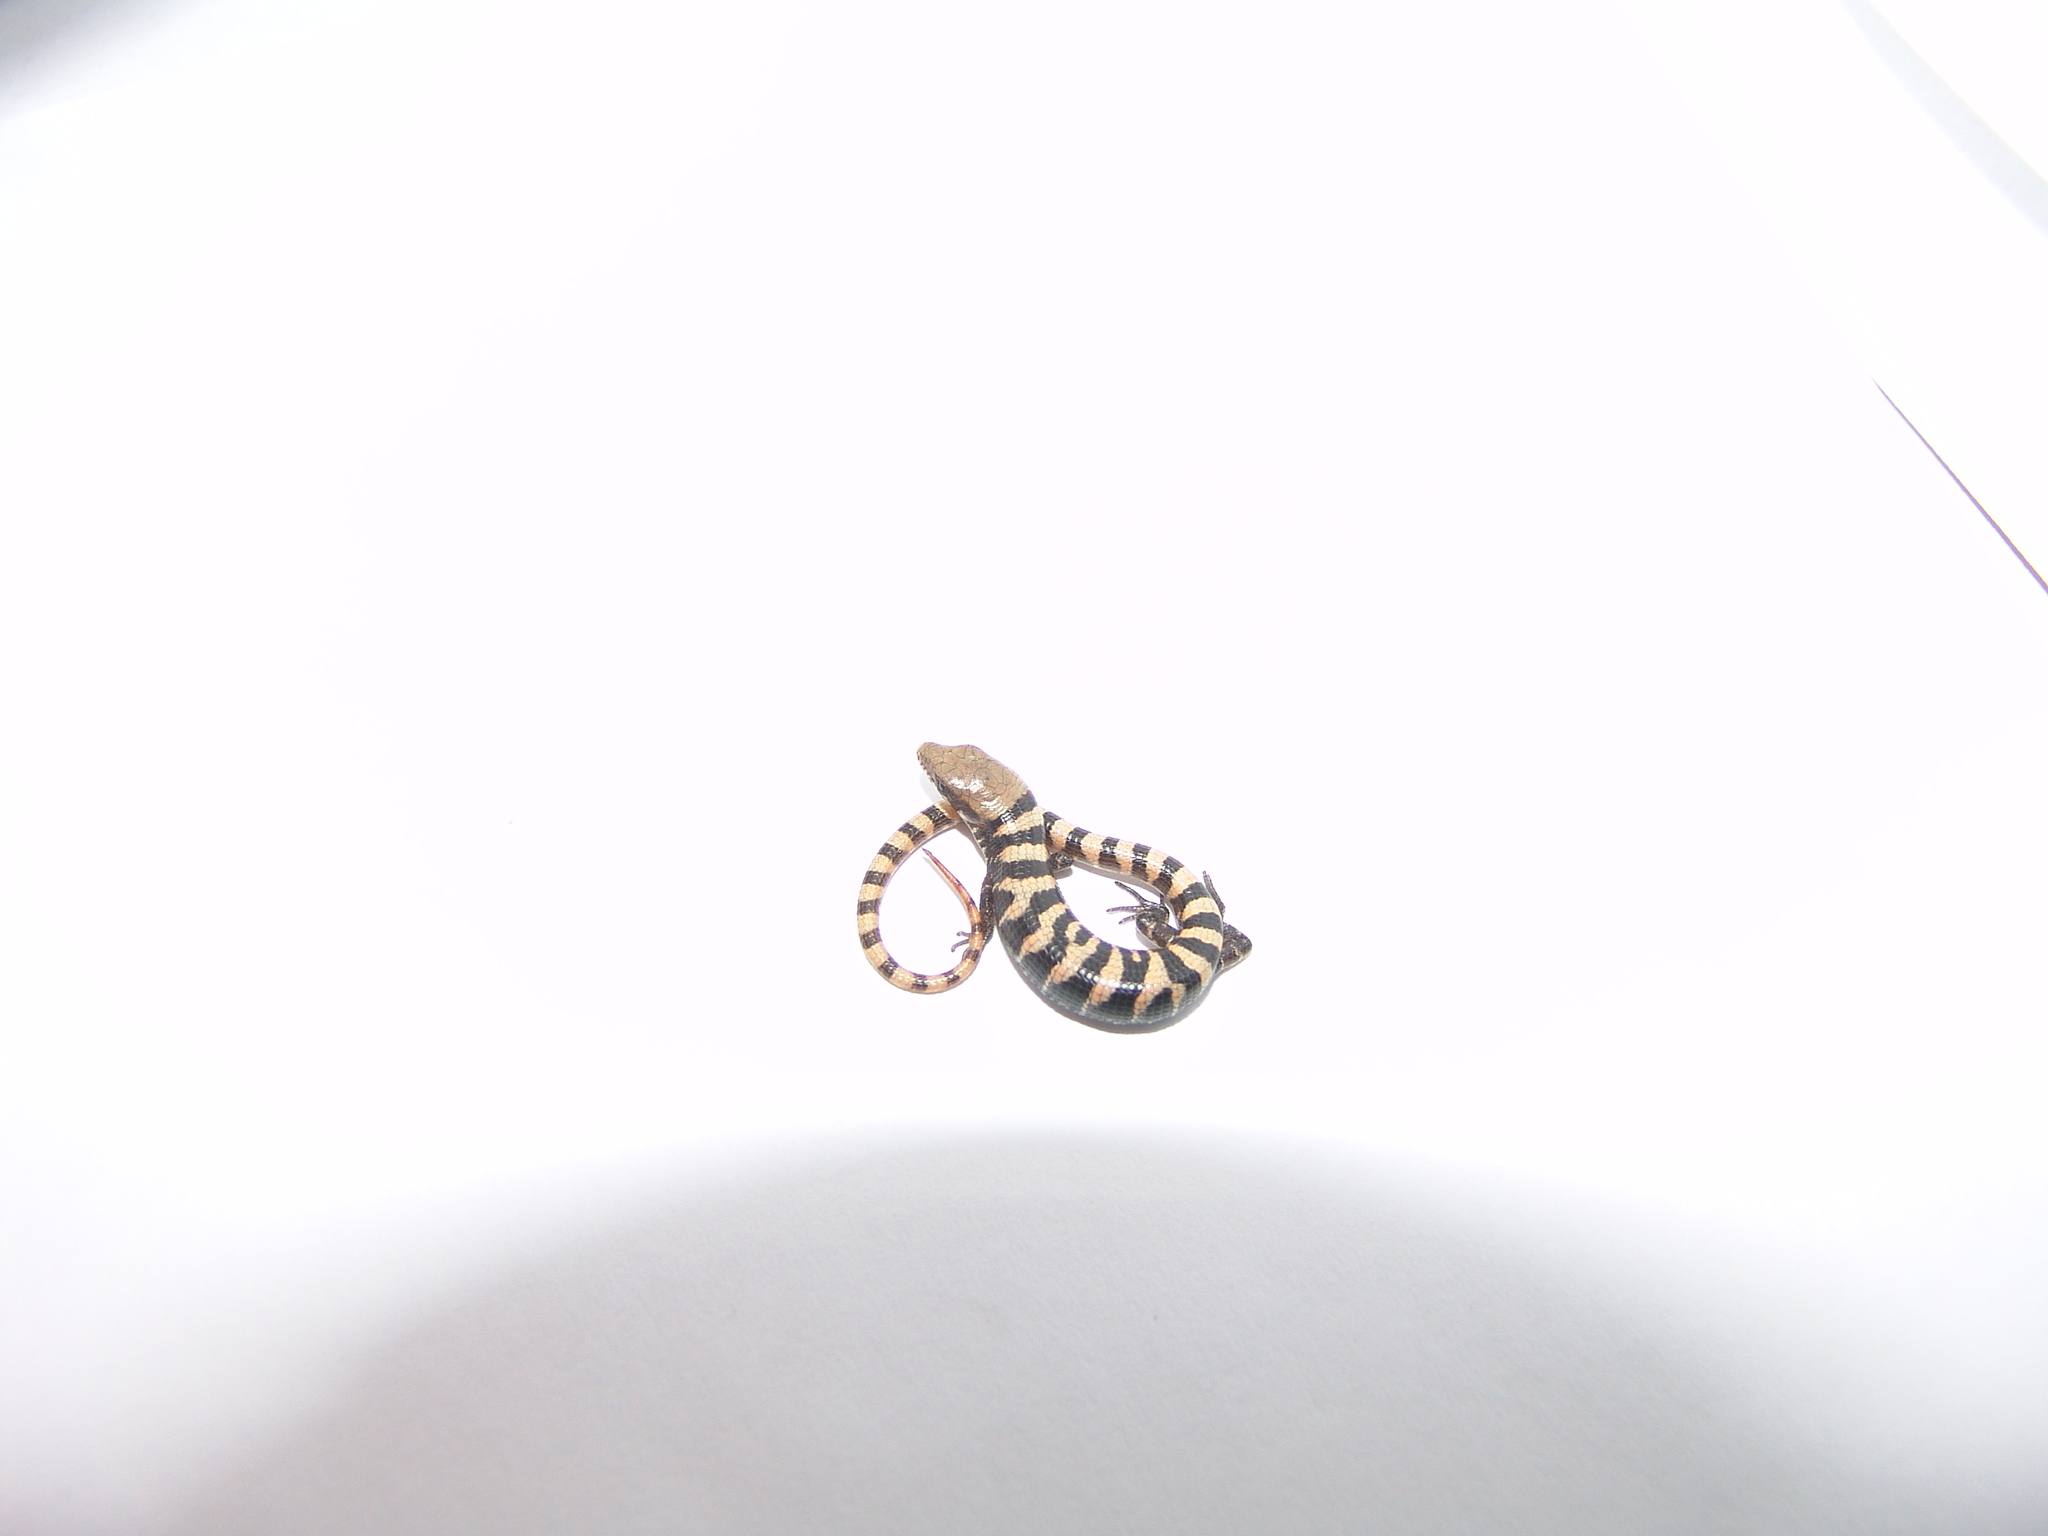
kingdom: Animalia
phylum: Chordata
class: Squamata
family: Anguidae
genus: Elgaria
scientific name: Elgaria kingii
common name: Madrean alligator lizard
